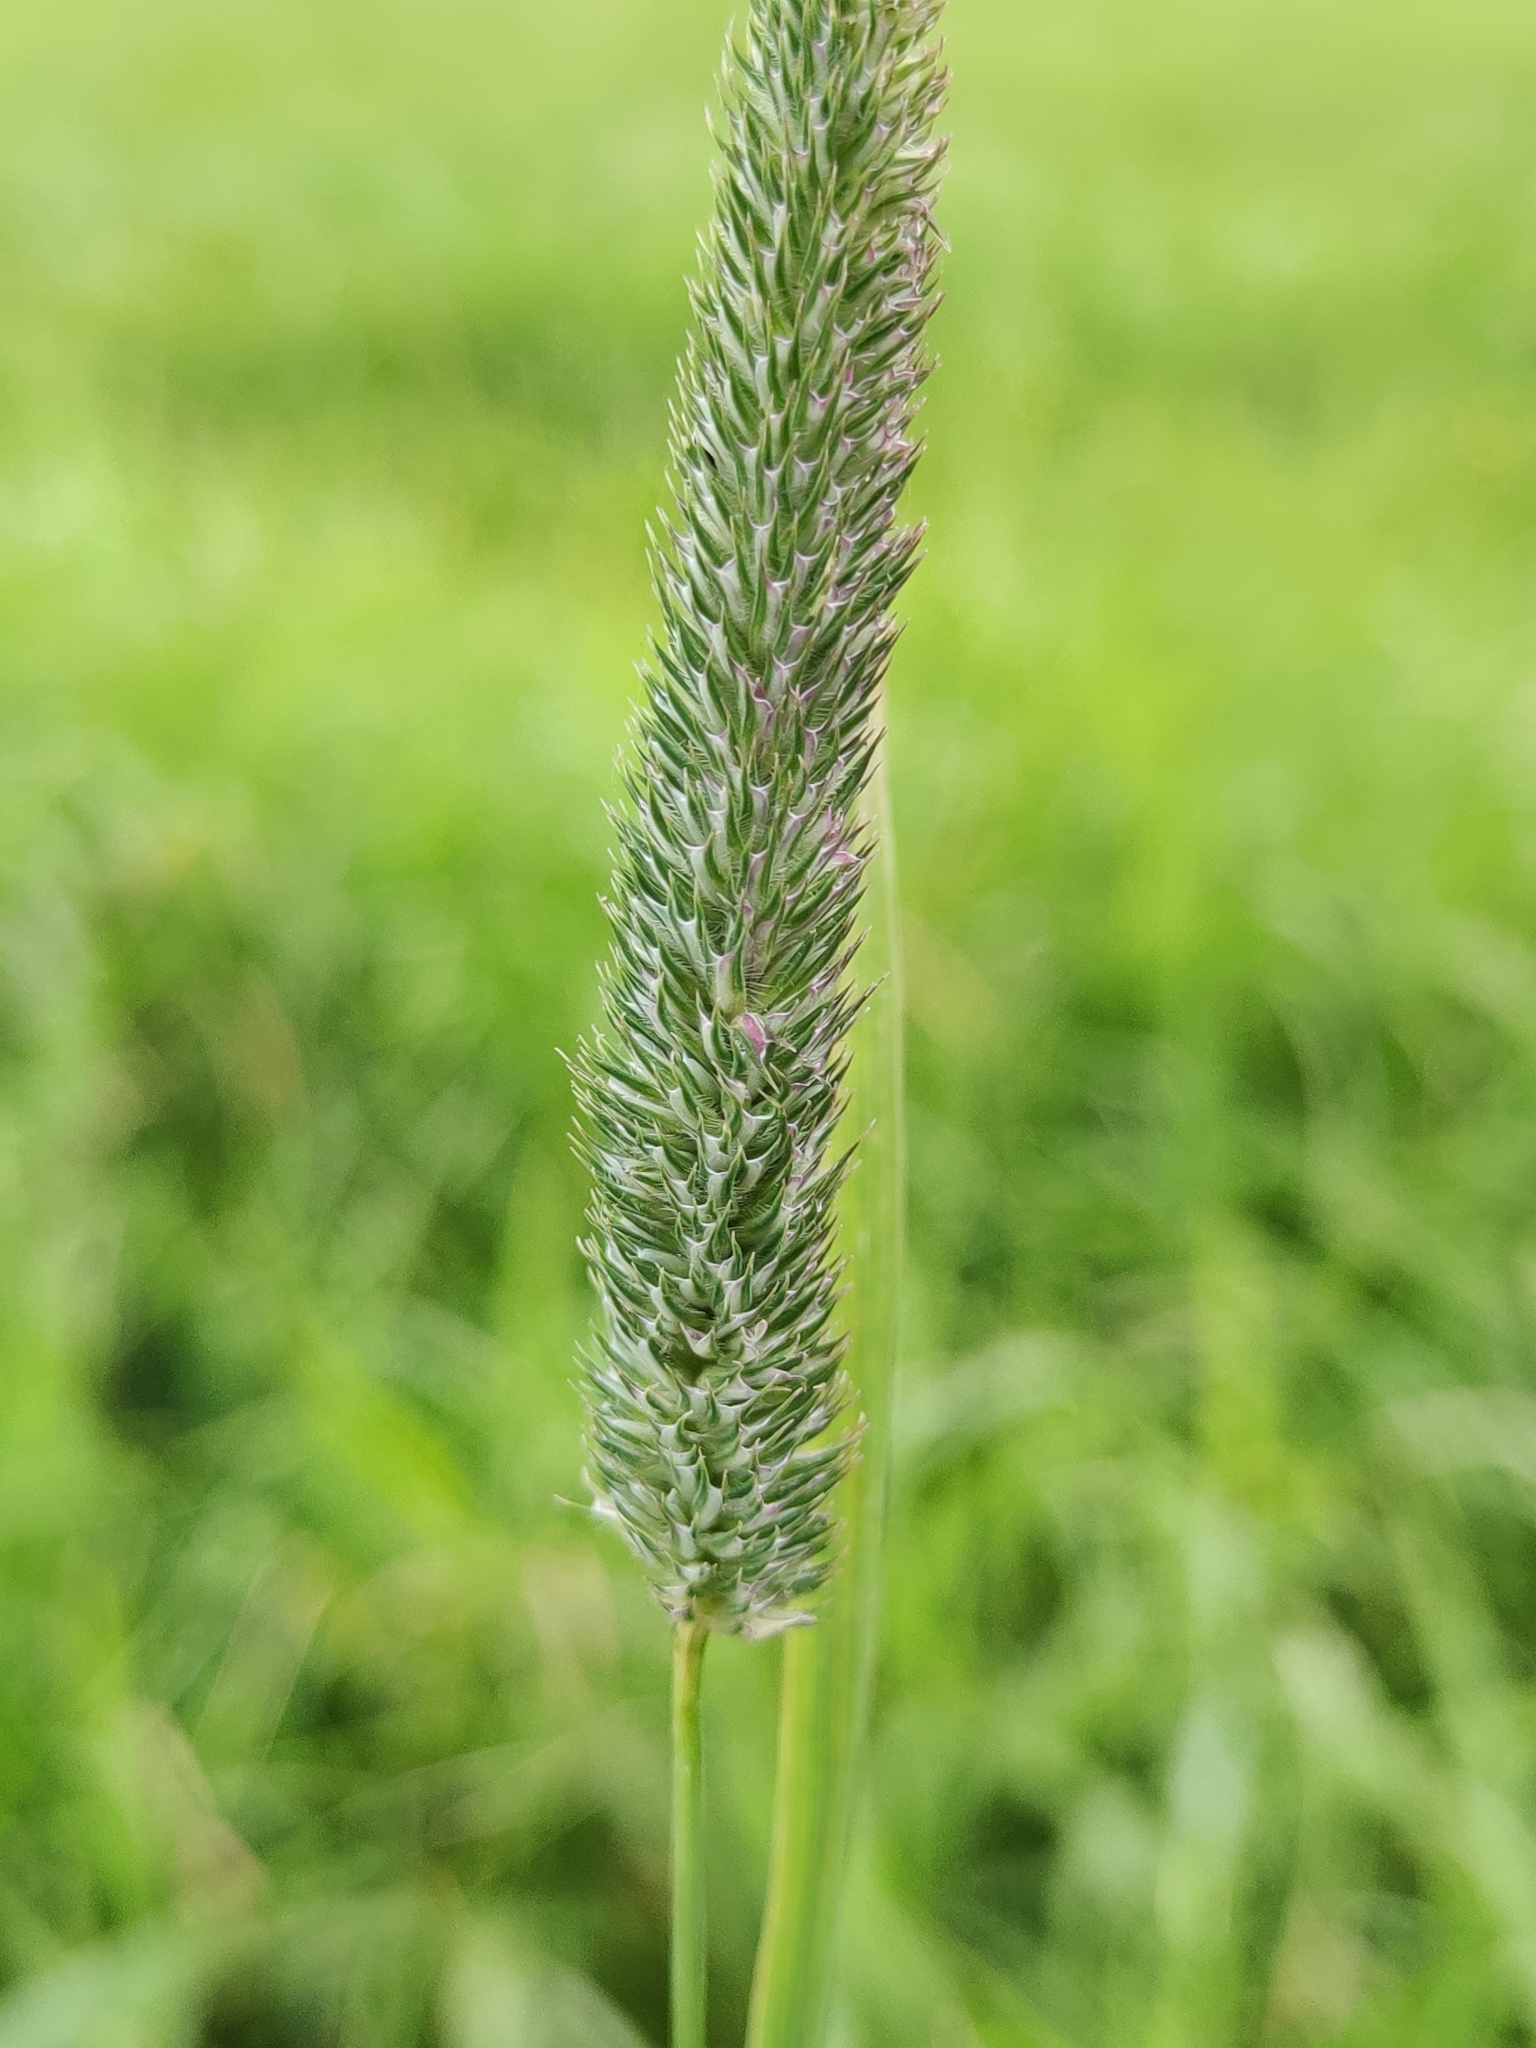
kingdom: Plantae
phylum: Tracheophyta
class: Liliopsida
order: Poales
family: Poaceae
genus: Phleum
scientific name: Phleum pratense
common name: Timothy grass
